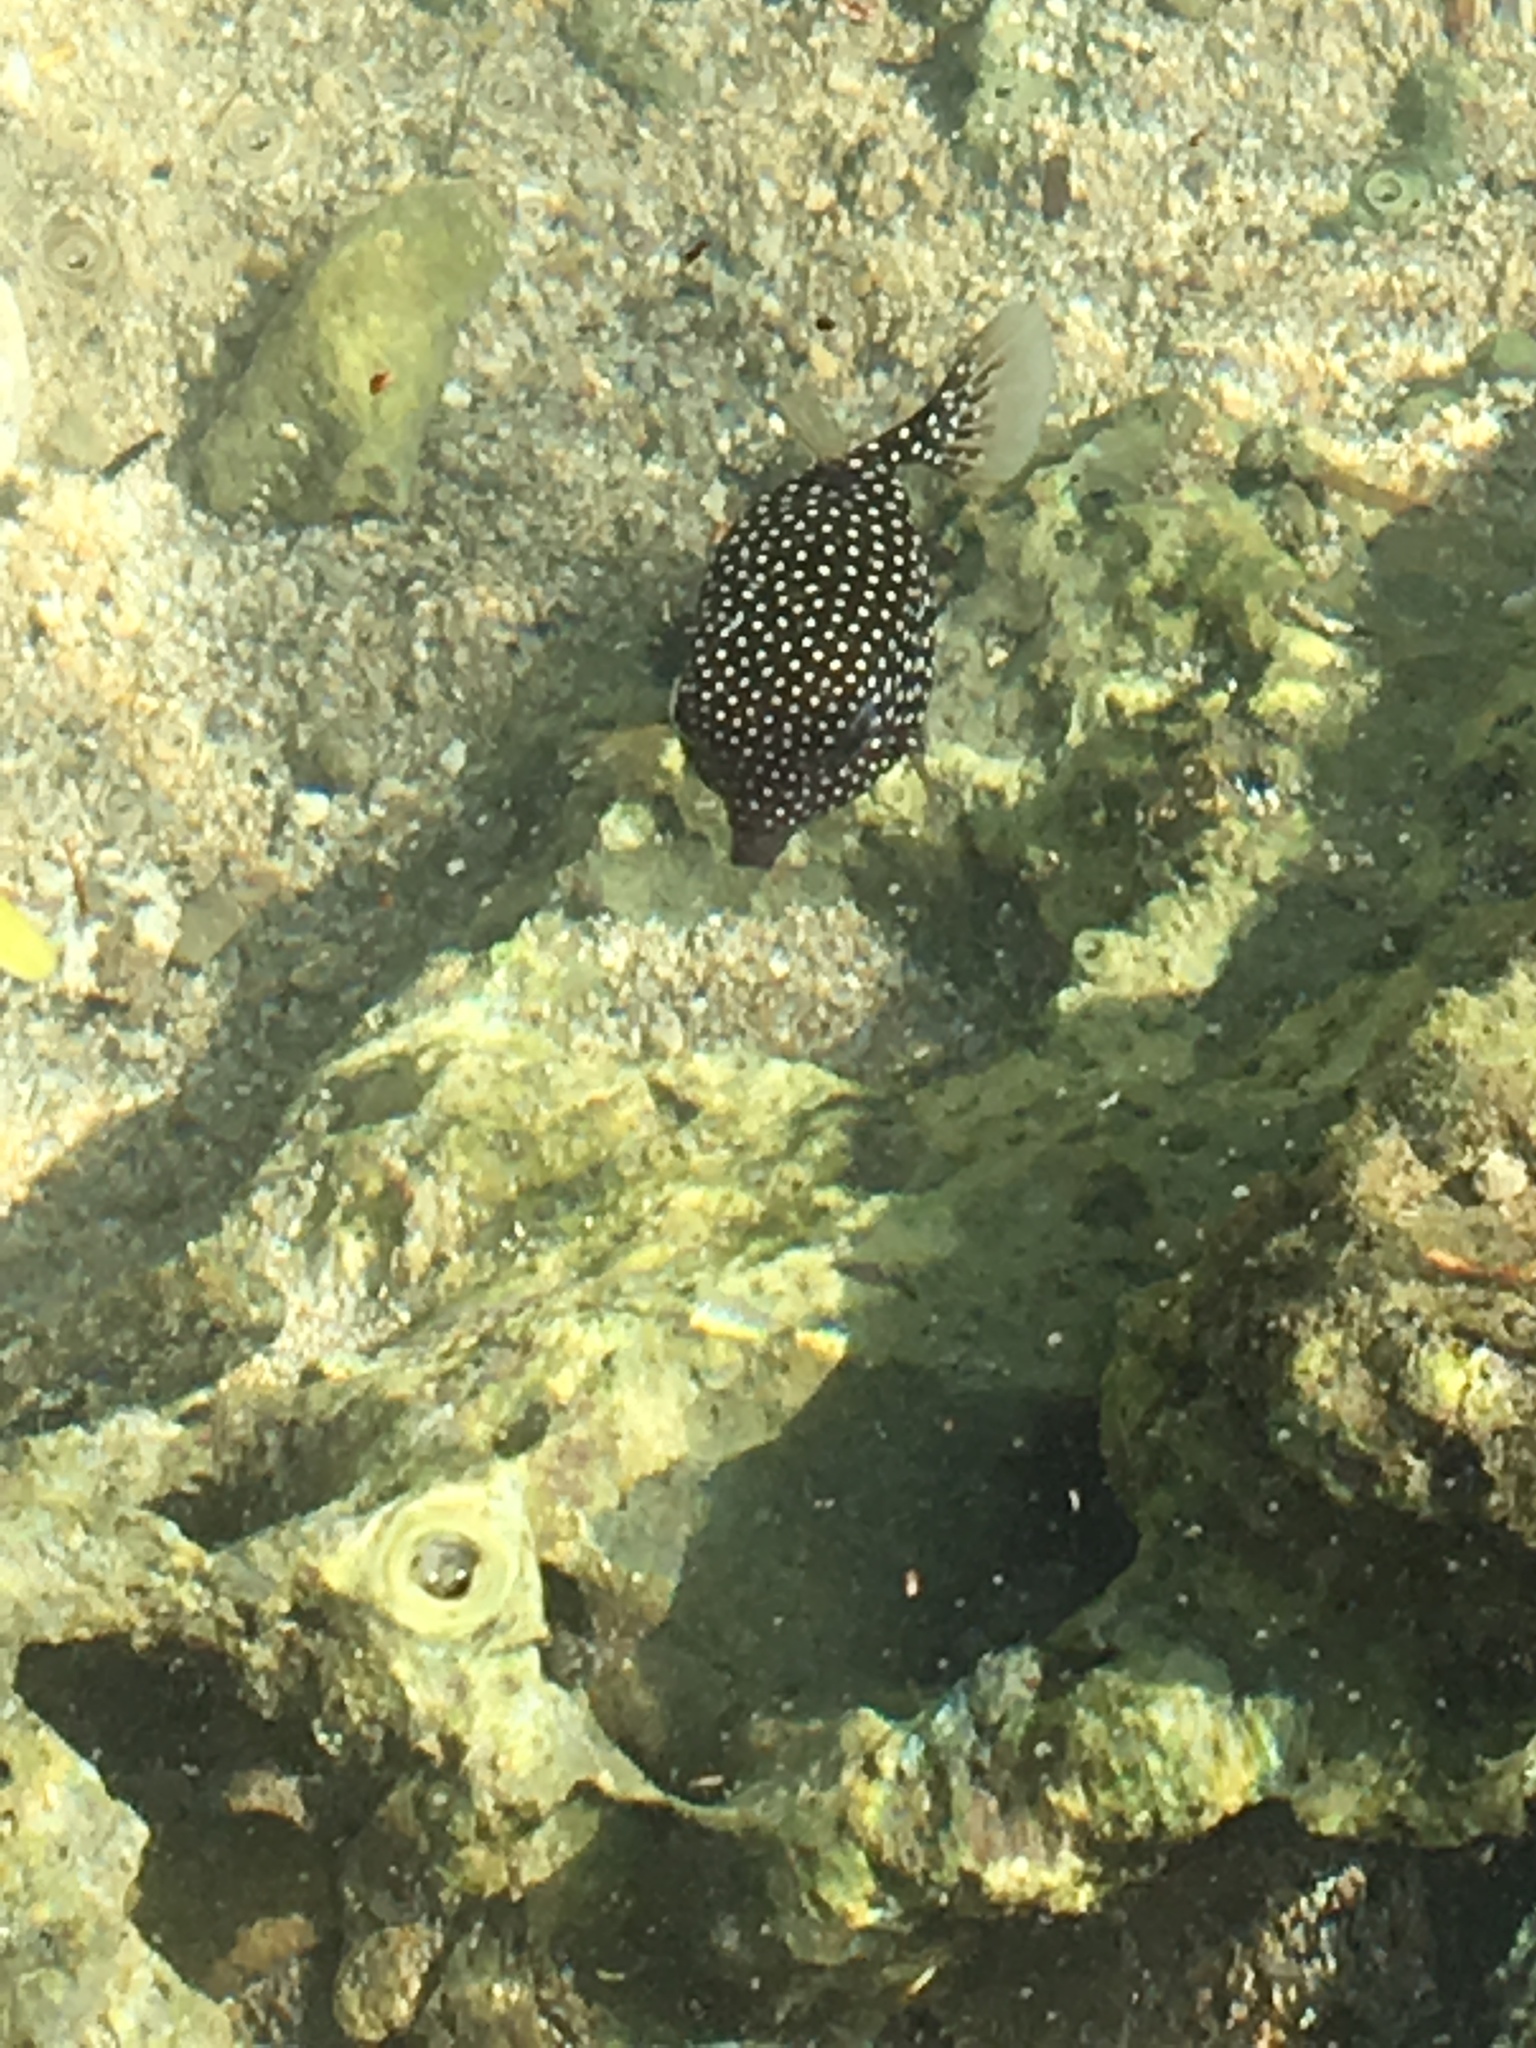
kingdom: Animalia
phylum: Chordata
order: Tetraodontiformes
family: Ostraciidae
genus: Ostracion
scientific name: Ostracion meleagris
